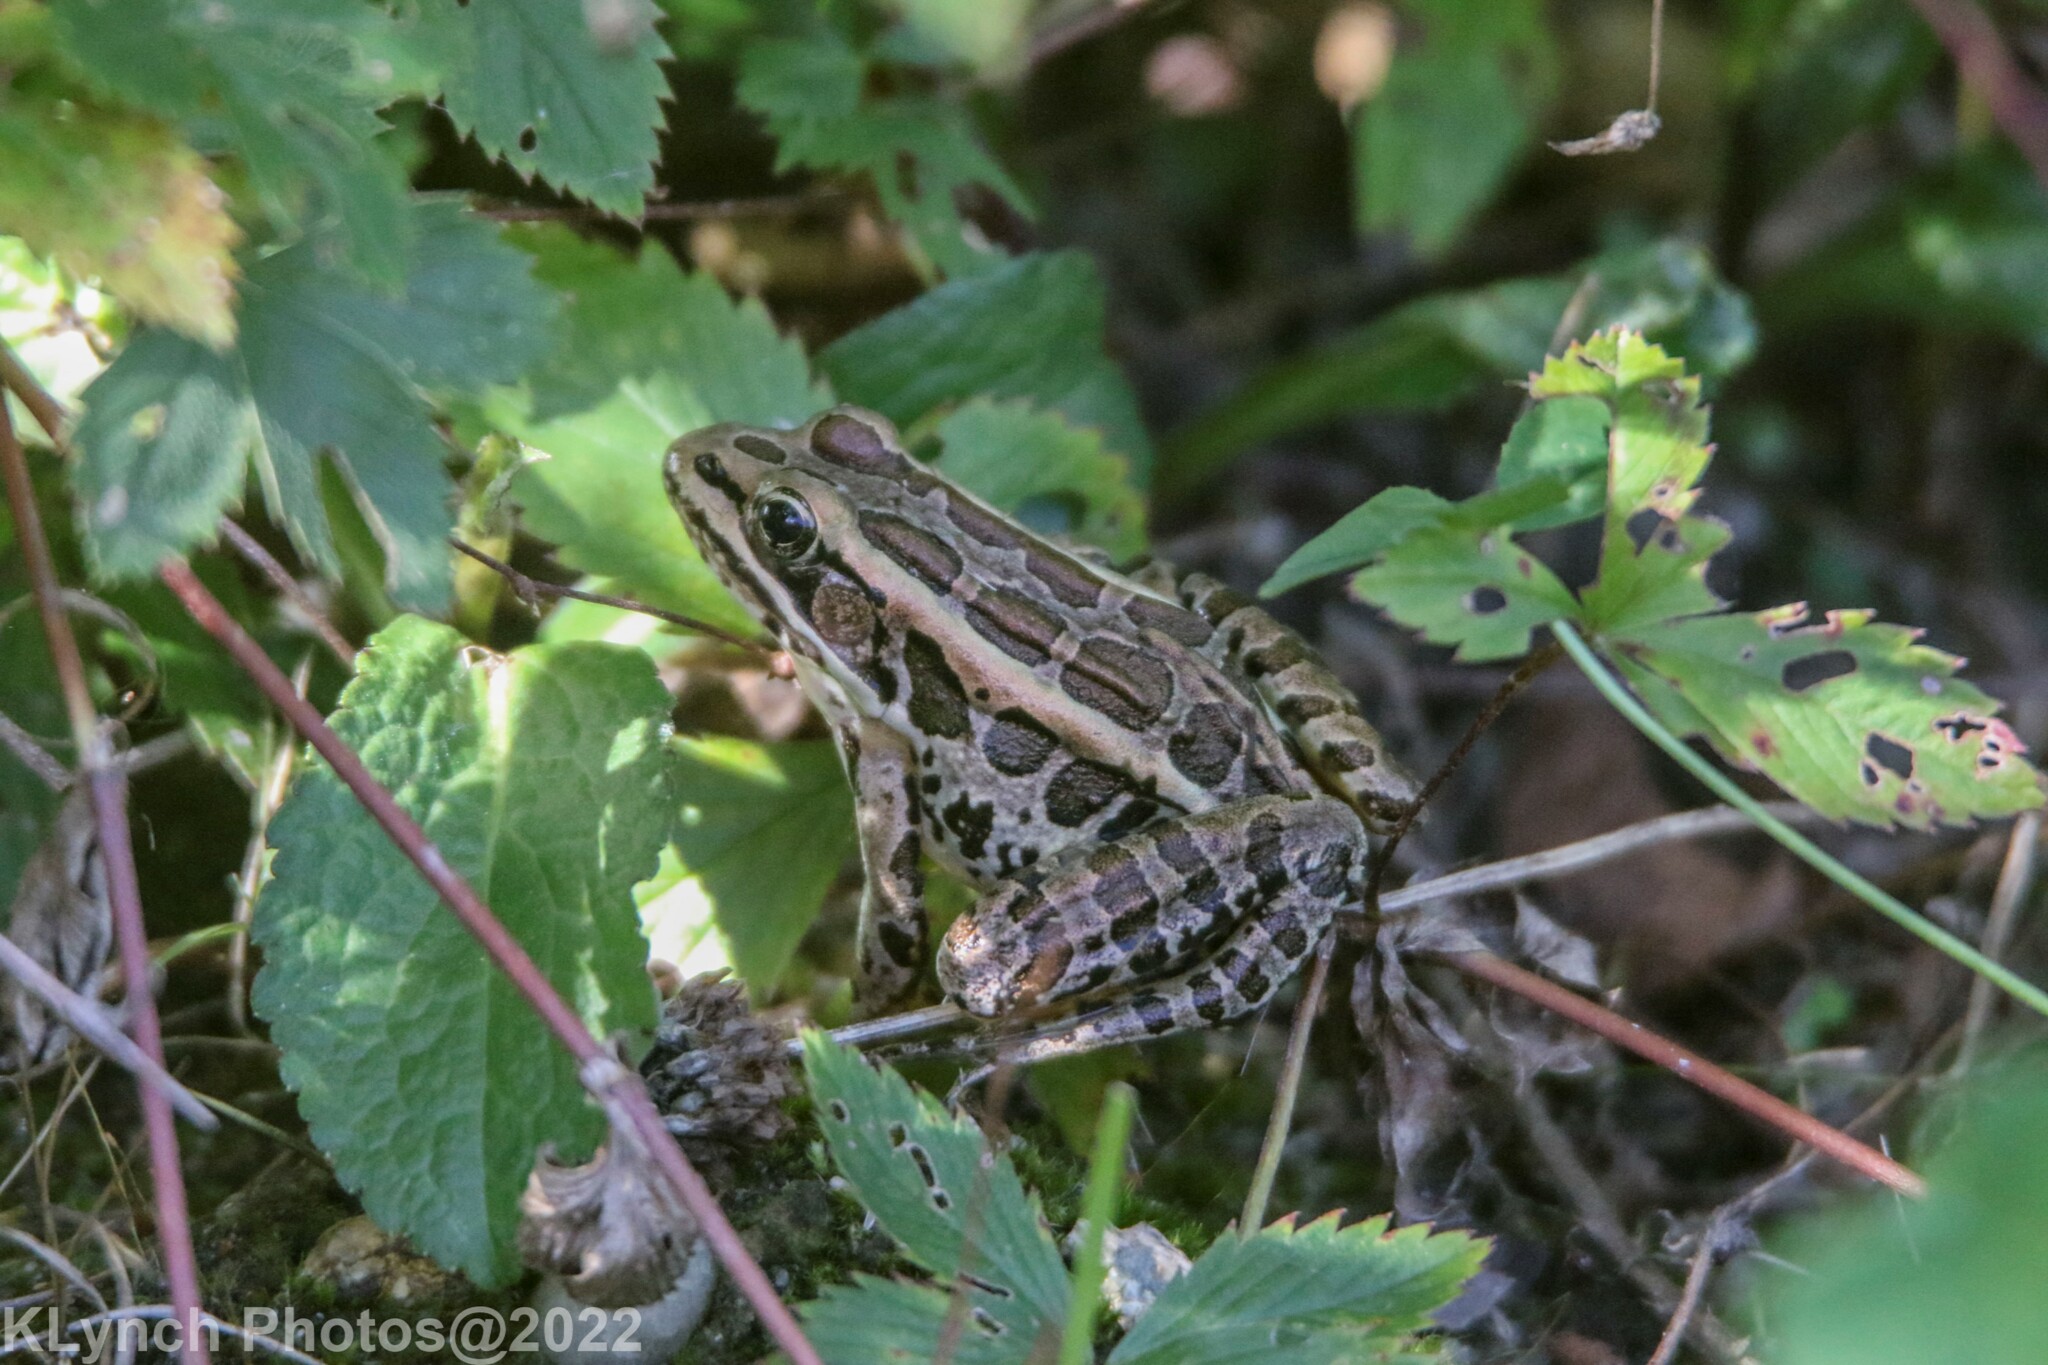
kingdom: Animalia
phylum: Chordata
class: Amphibia
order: Anura
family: Ranidae
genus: Lithobates
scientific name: Lithobates palustris
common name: Pickerel frog
